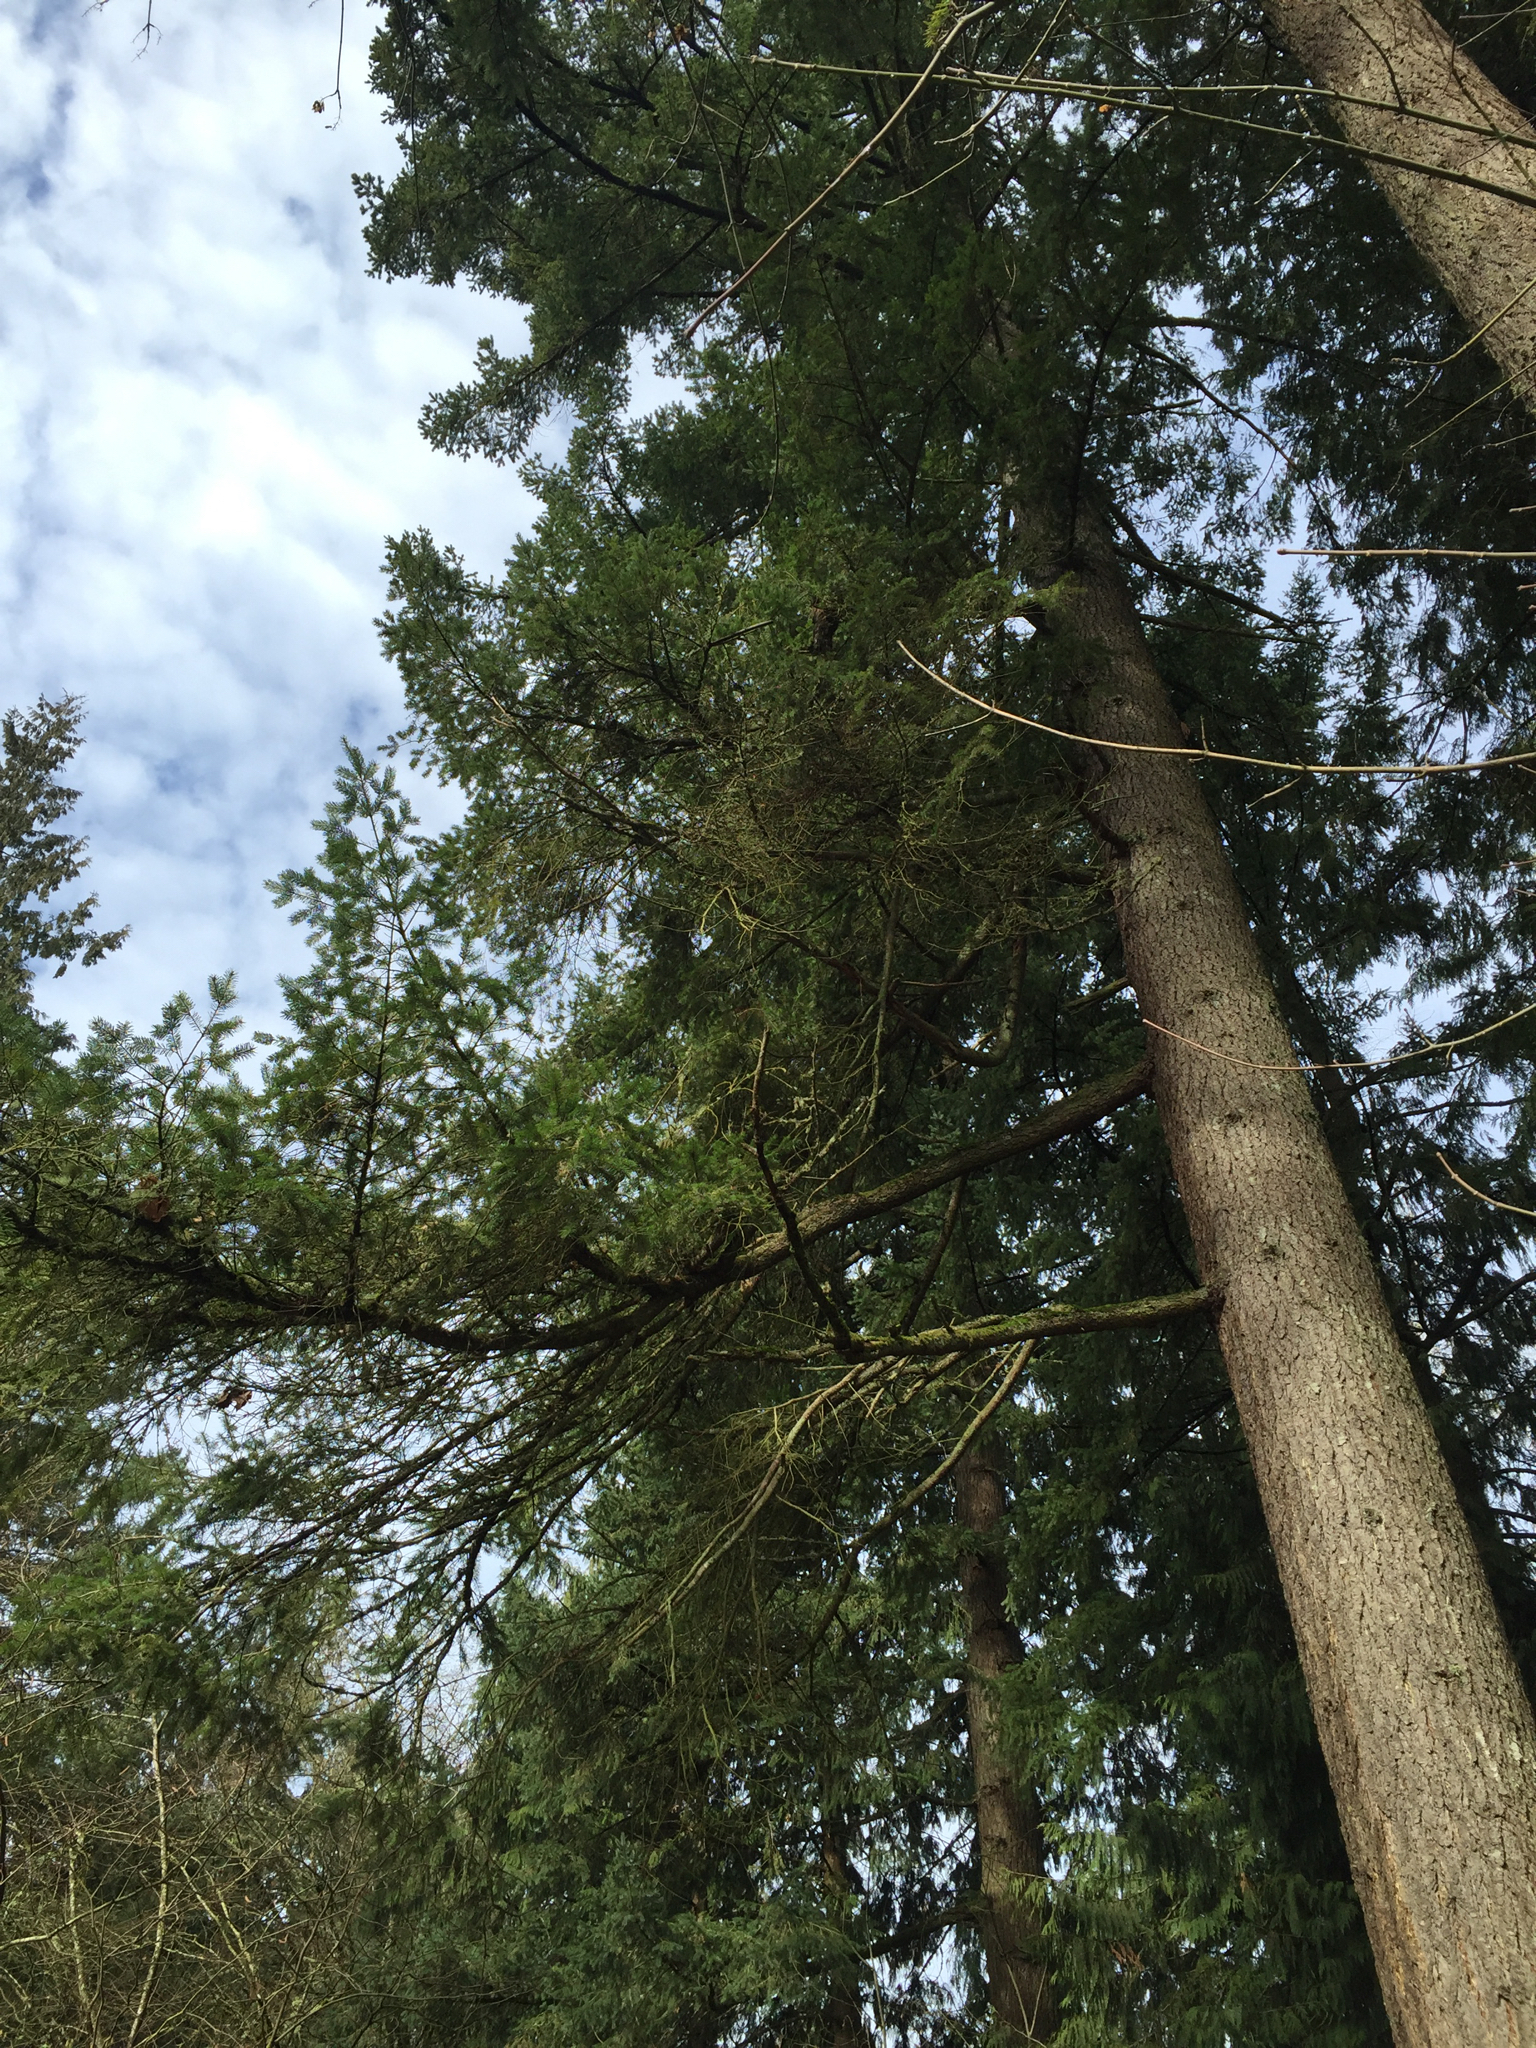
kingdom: Plantae
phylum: Tracheophyta
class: Pinopsida
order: Pinales
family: Pinaceae
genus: Pseudotsuga
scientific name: Pseudotsuga menziesii
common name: Douglas fir
